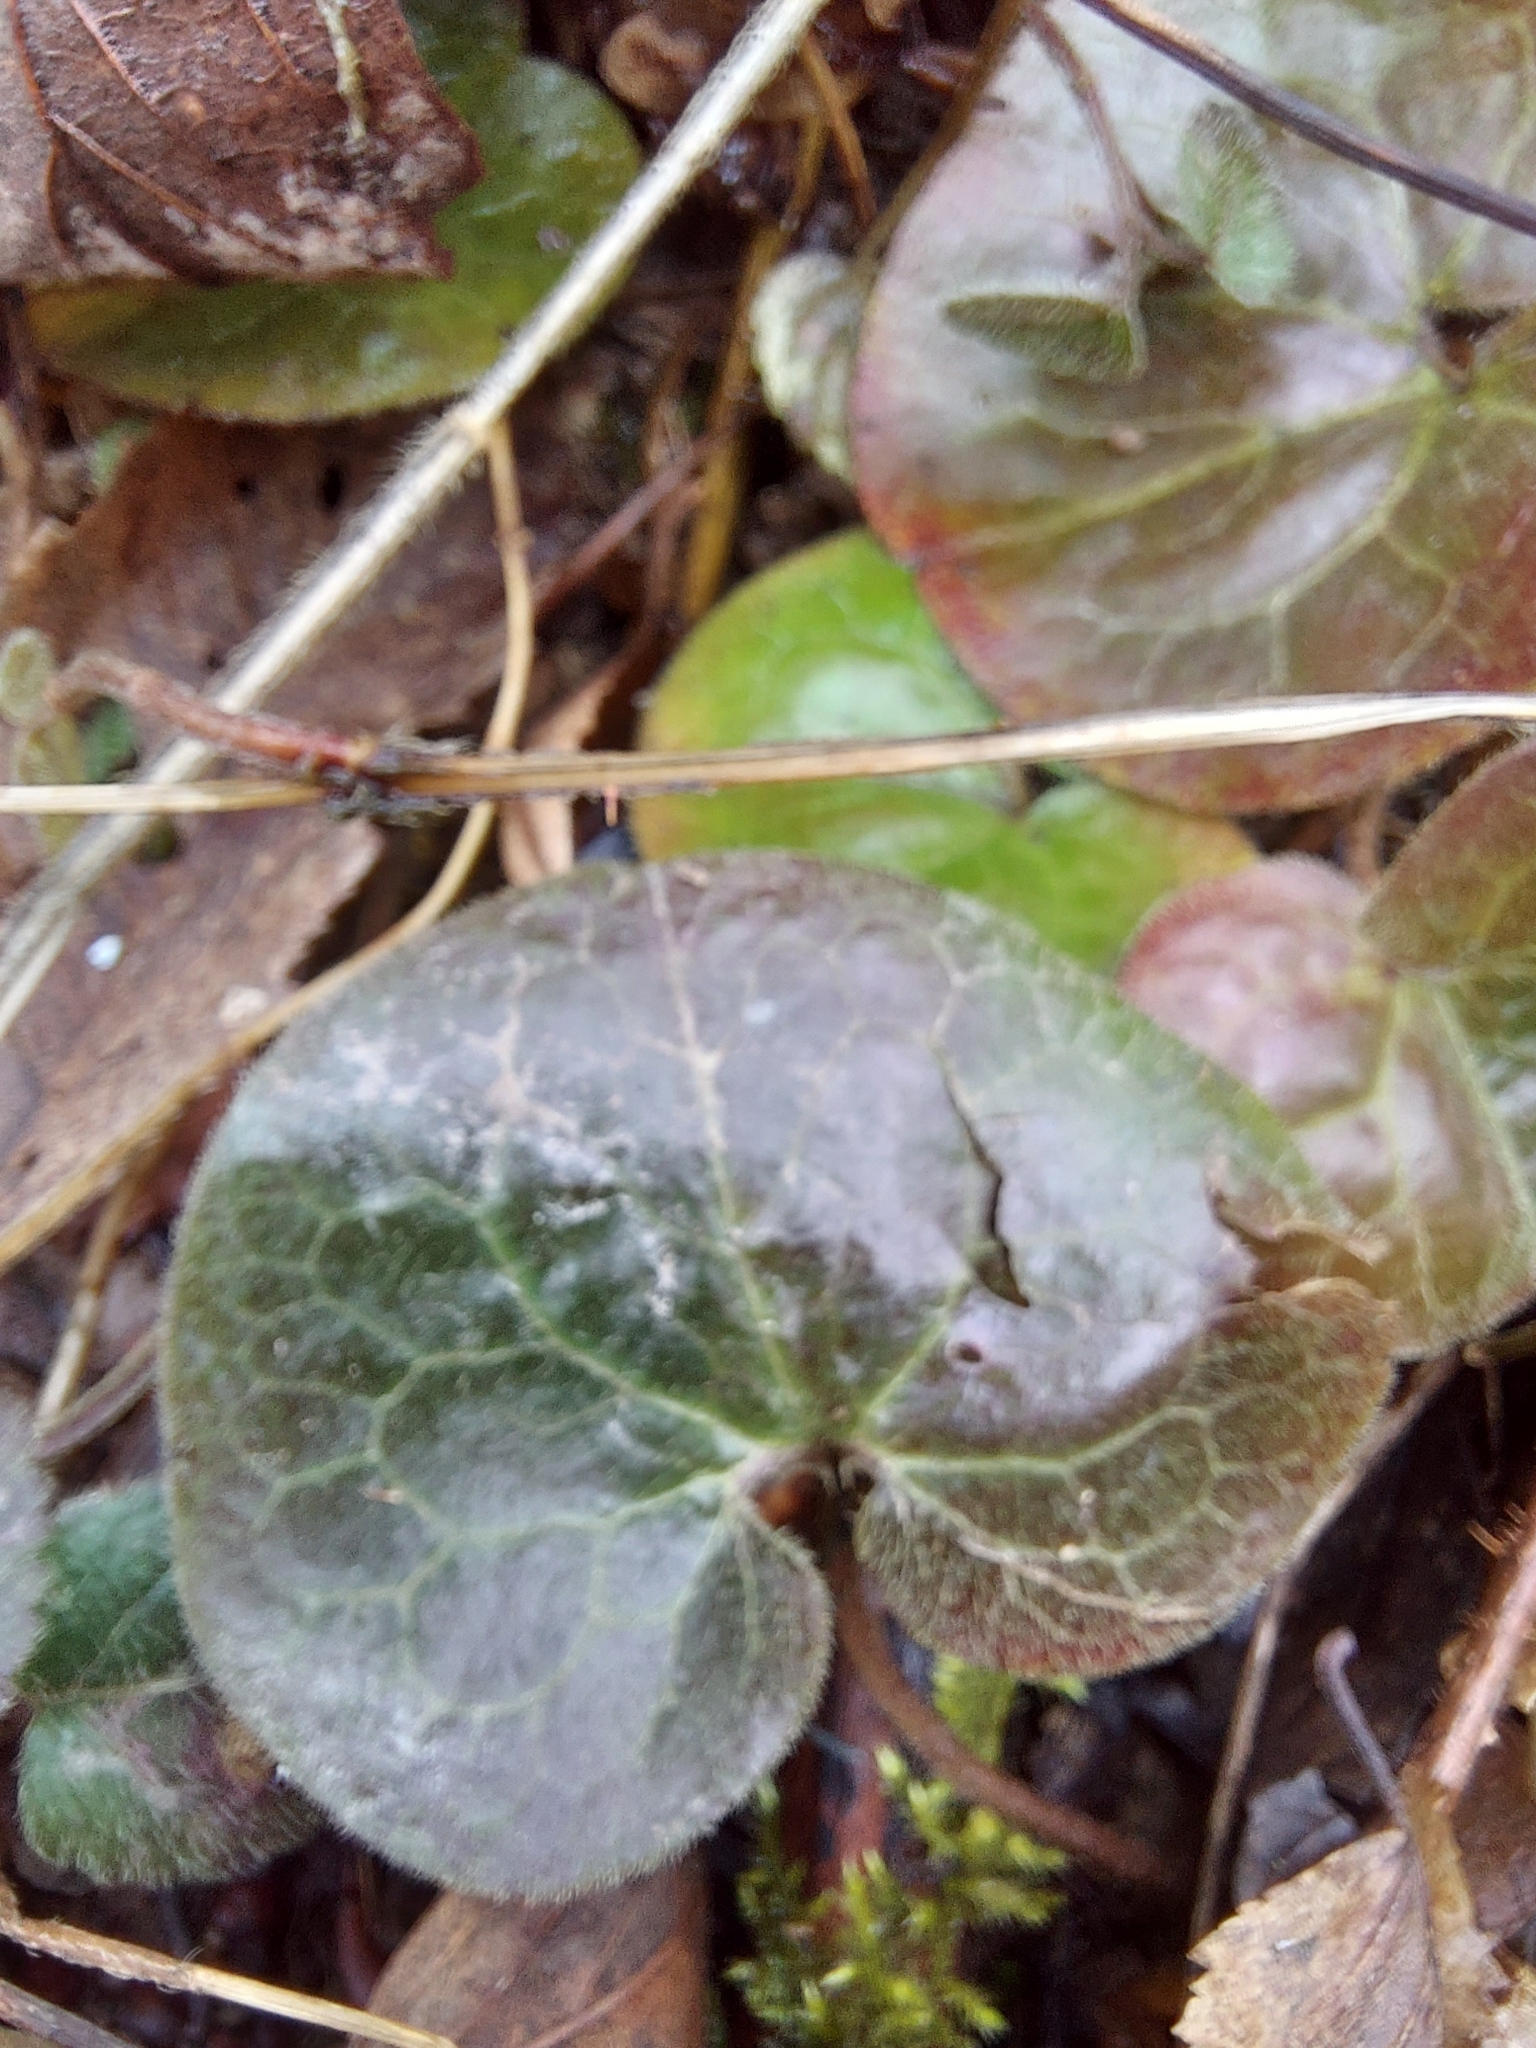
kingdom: Plantae
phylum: Tracheophyta
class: Magnoliopsida
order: Piperales
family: Aristolochiaceae
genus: Asarum
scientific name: Asarum europaeum
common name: Asarabacca
